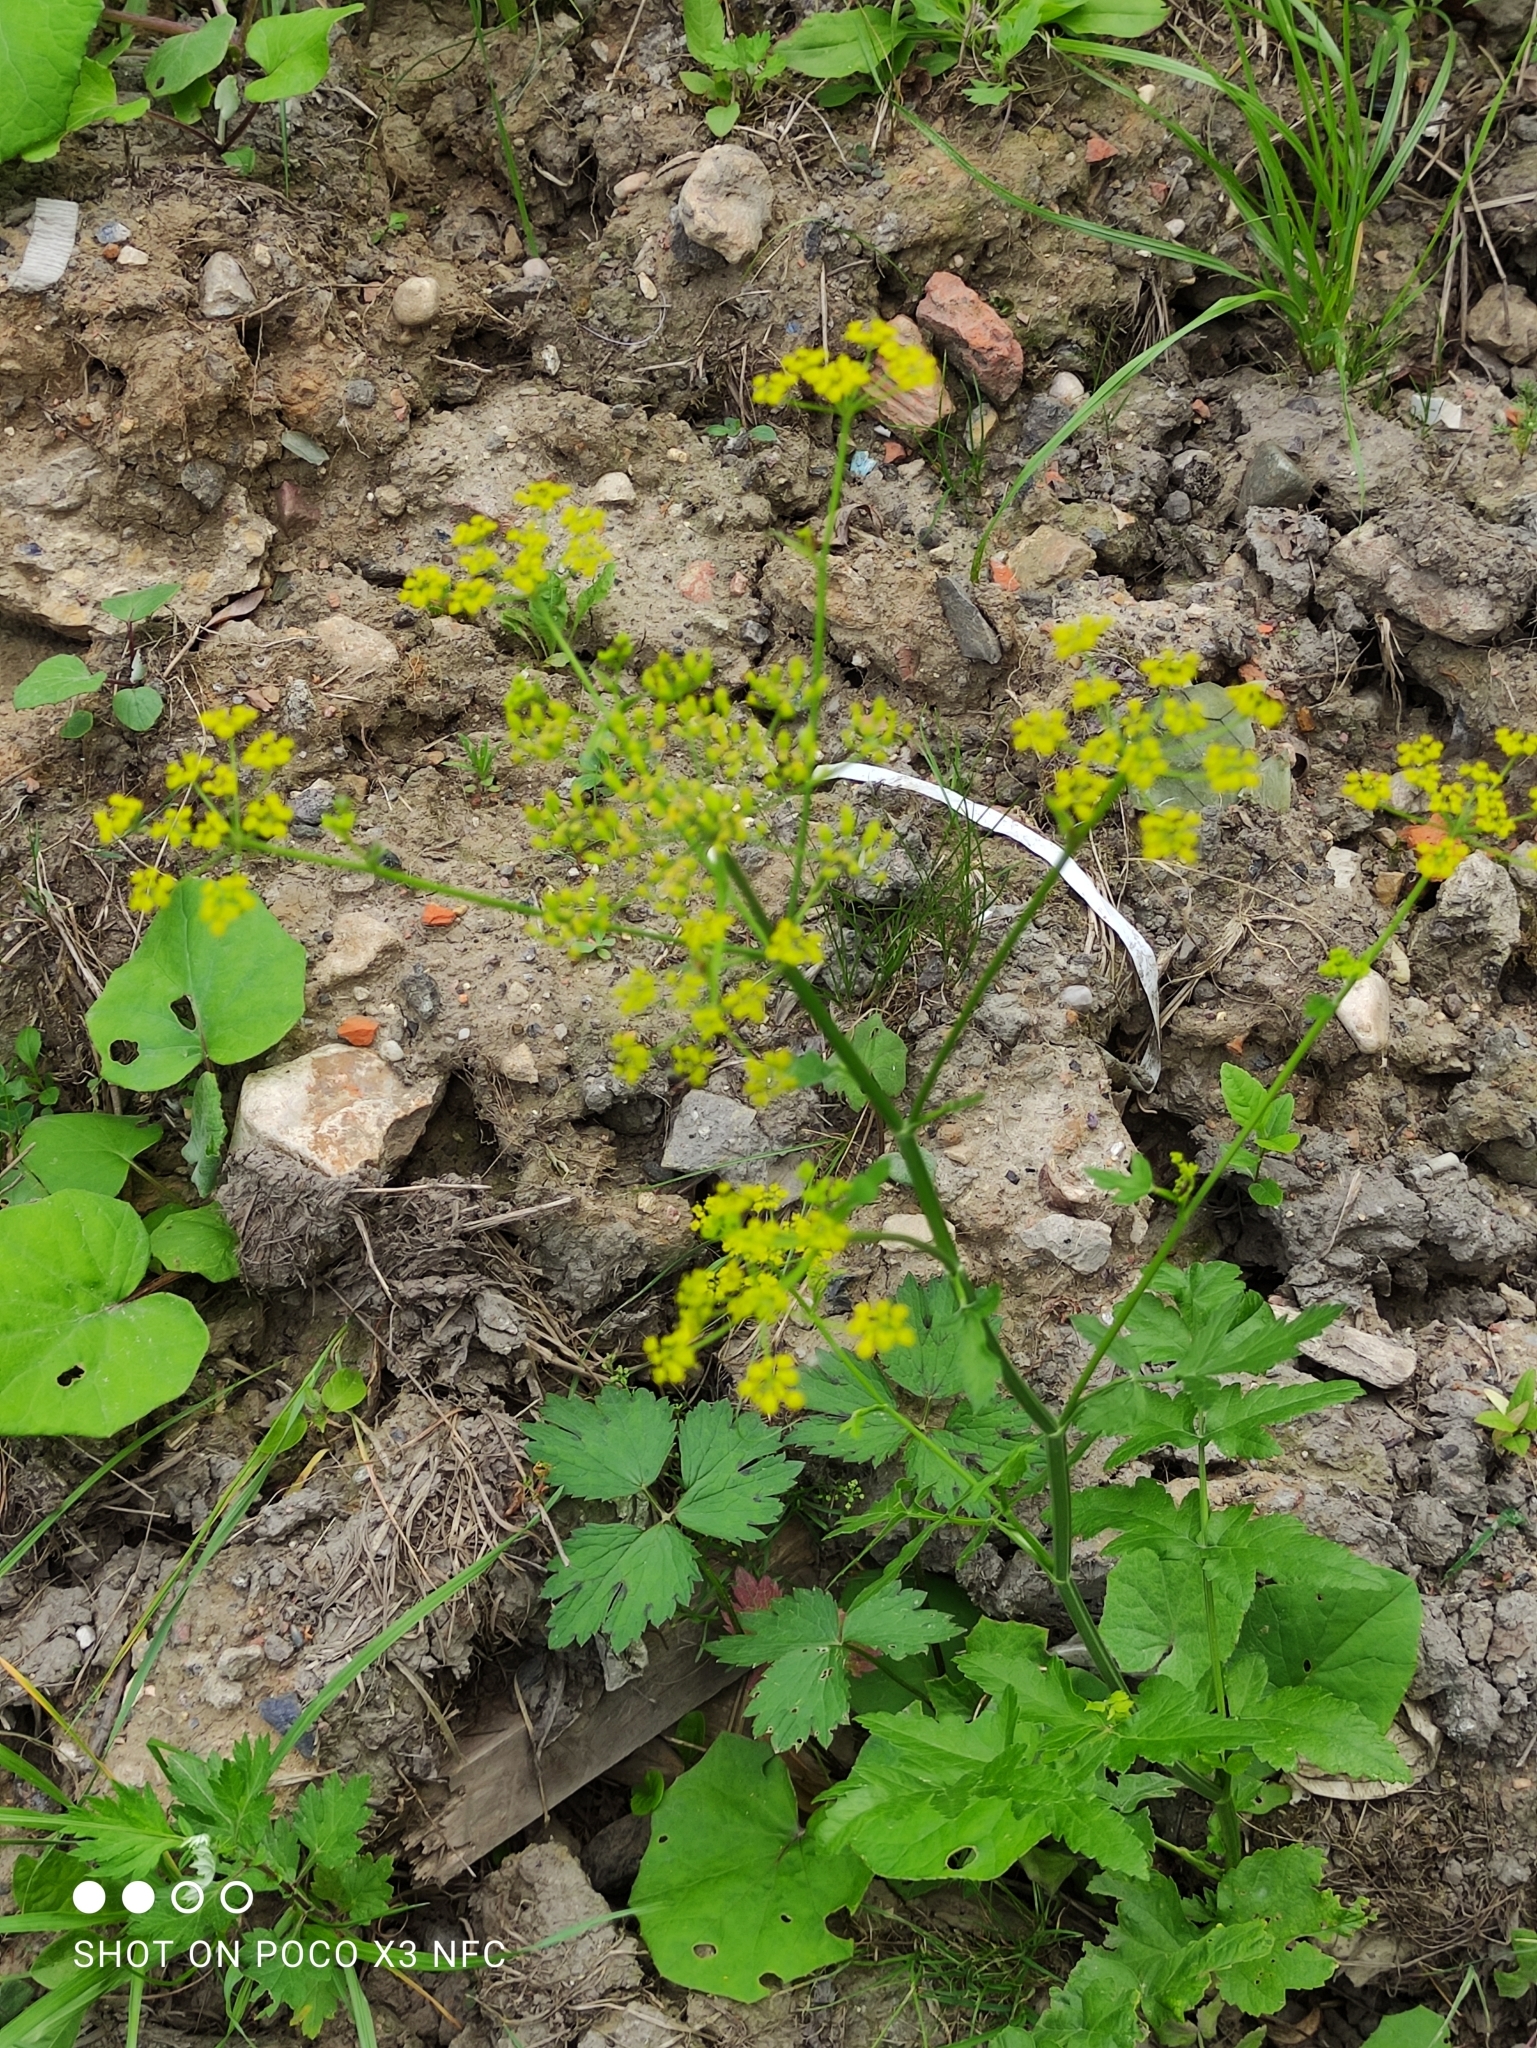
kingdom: Plantae
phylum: Tracheophyta
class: Magnoliopsida
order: Apiales
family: Apiaceae
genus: Pastinaca
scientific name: Pastinaca sativa
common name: Wild parsnip
